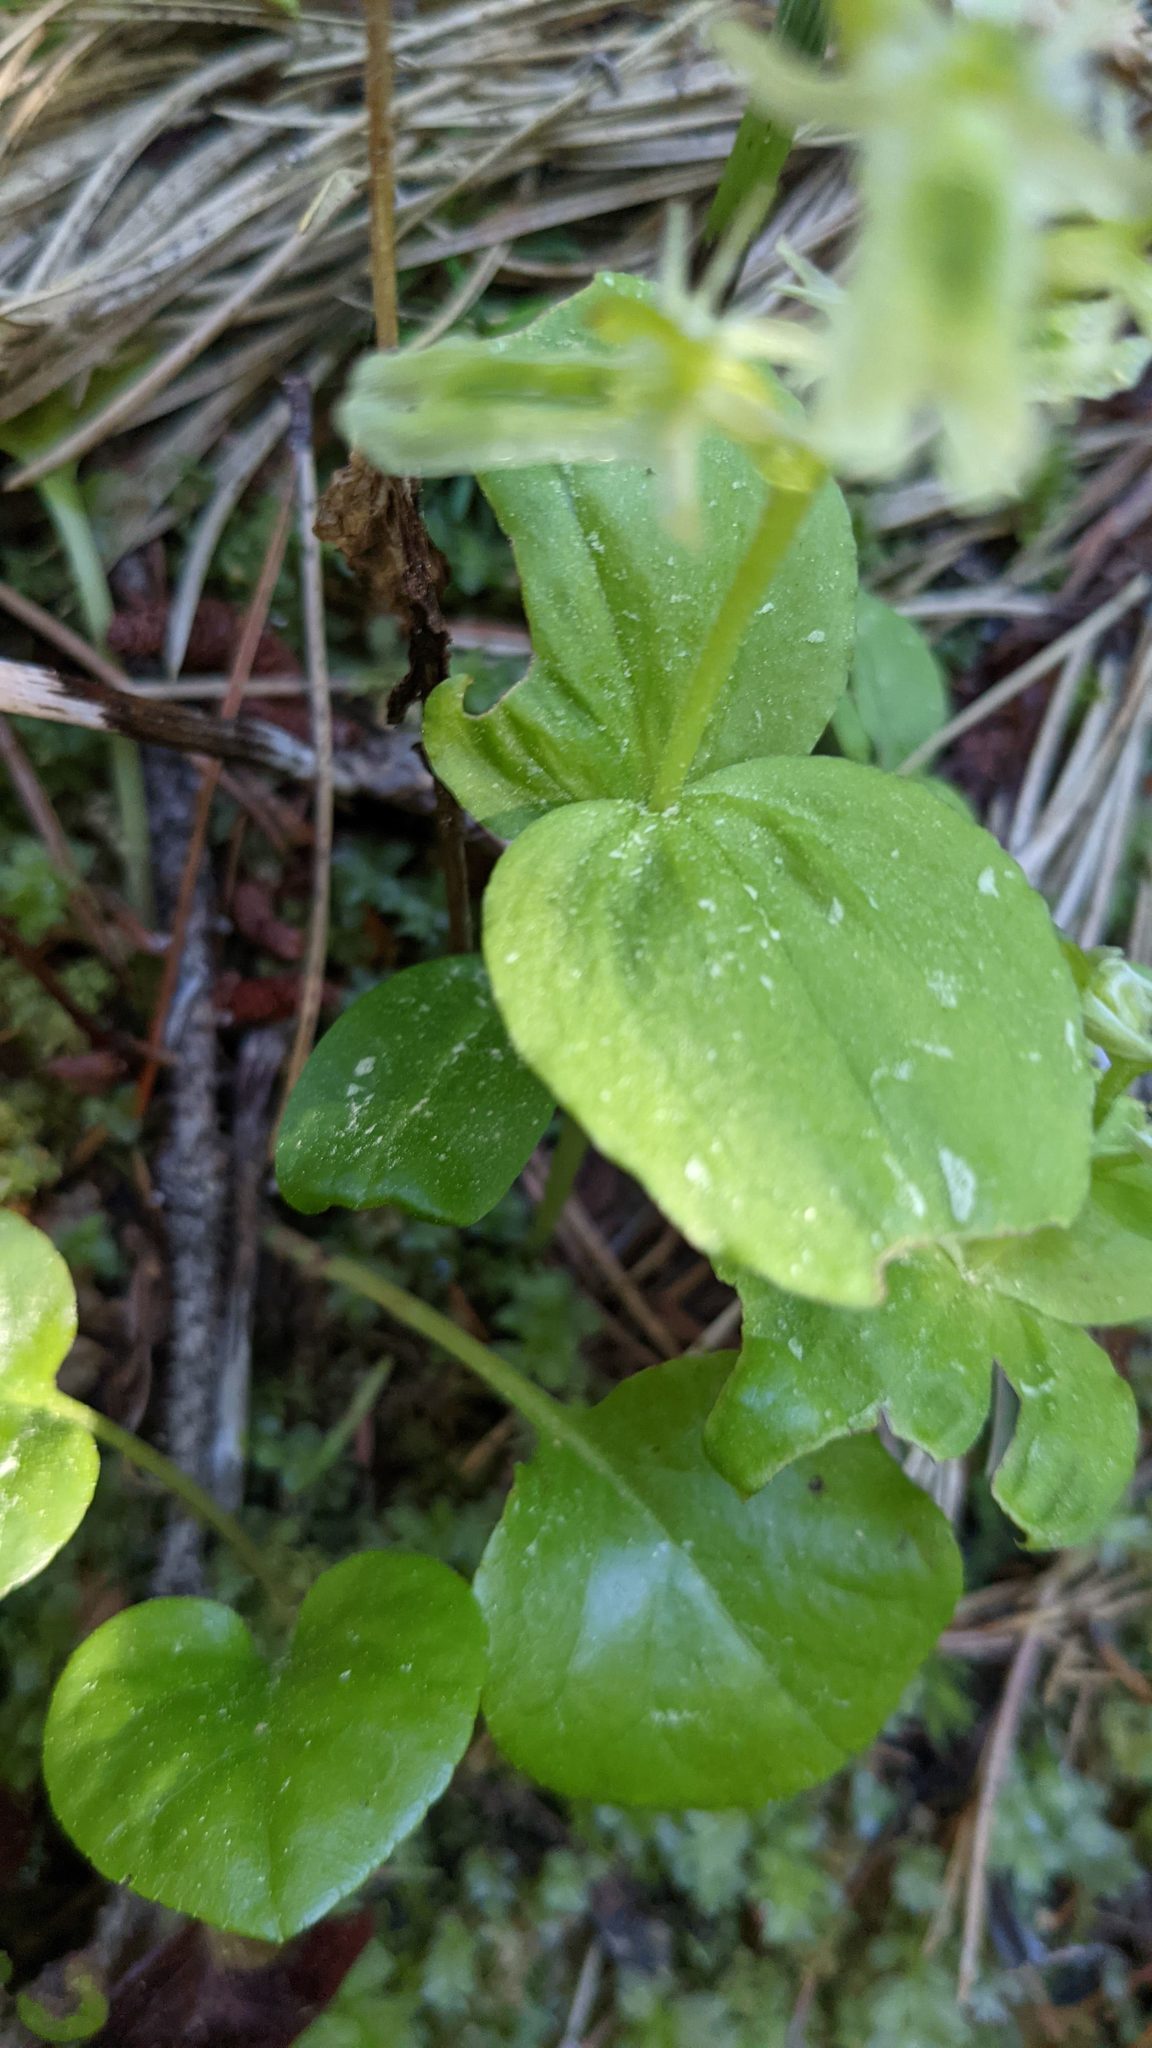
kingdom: Plantae
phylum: Tracheophyta
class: Liliopsida
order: Asparagales
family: Orchidaceae
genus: Neottia
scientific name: Neottia borealis
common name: Northern twayblade
